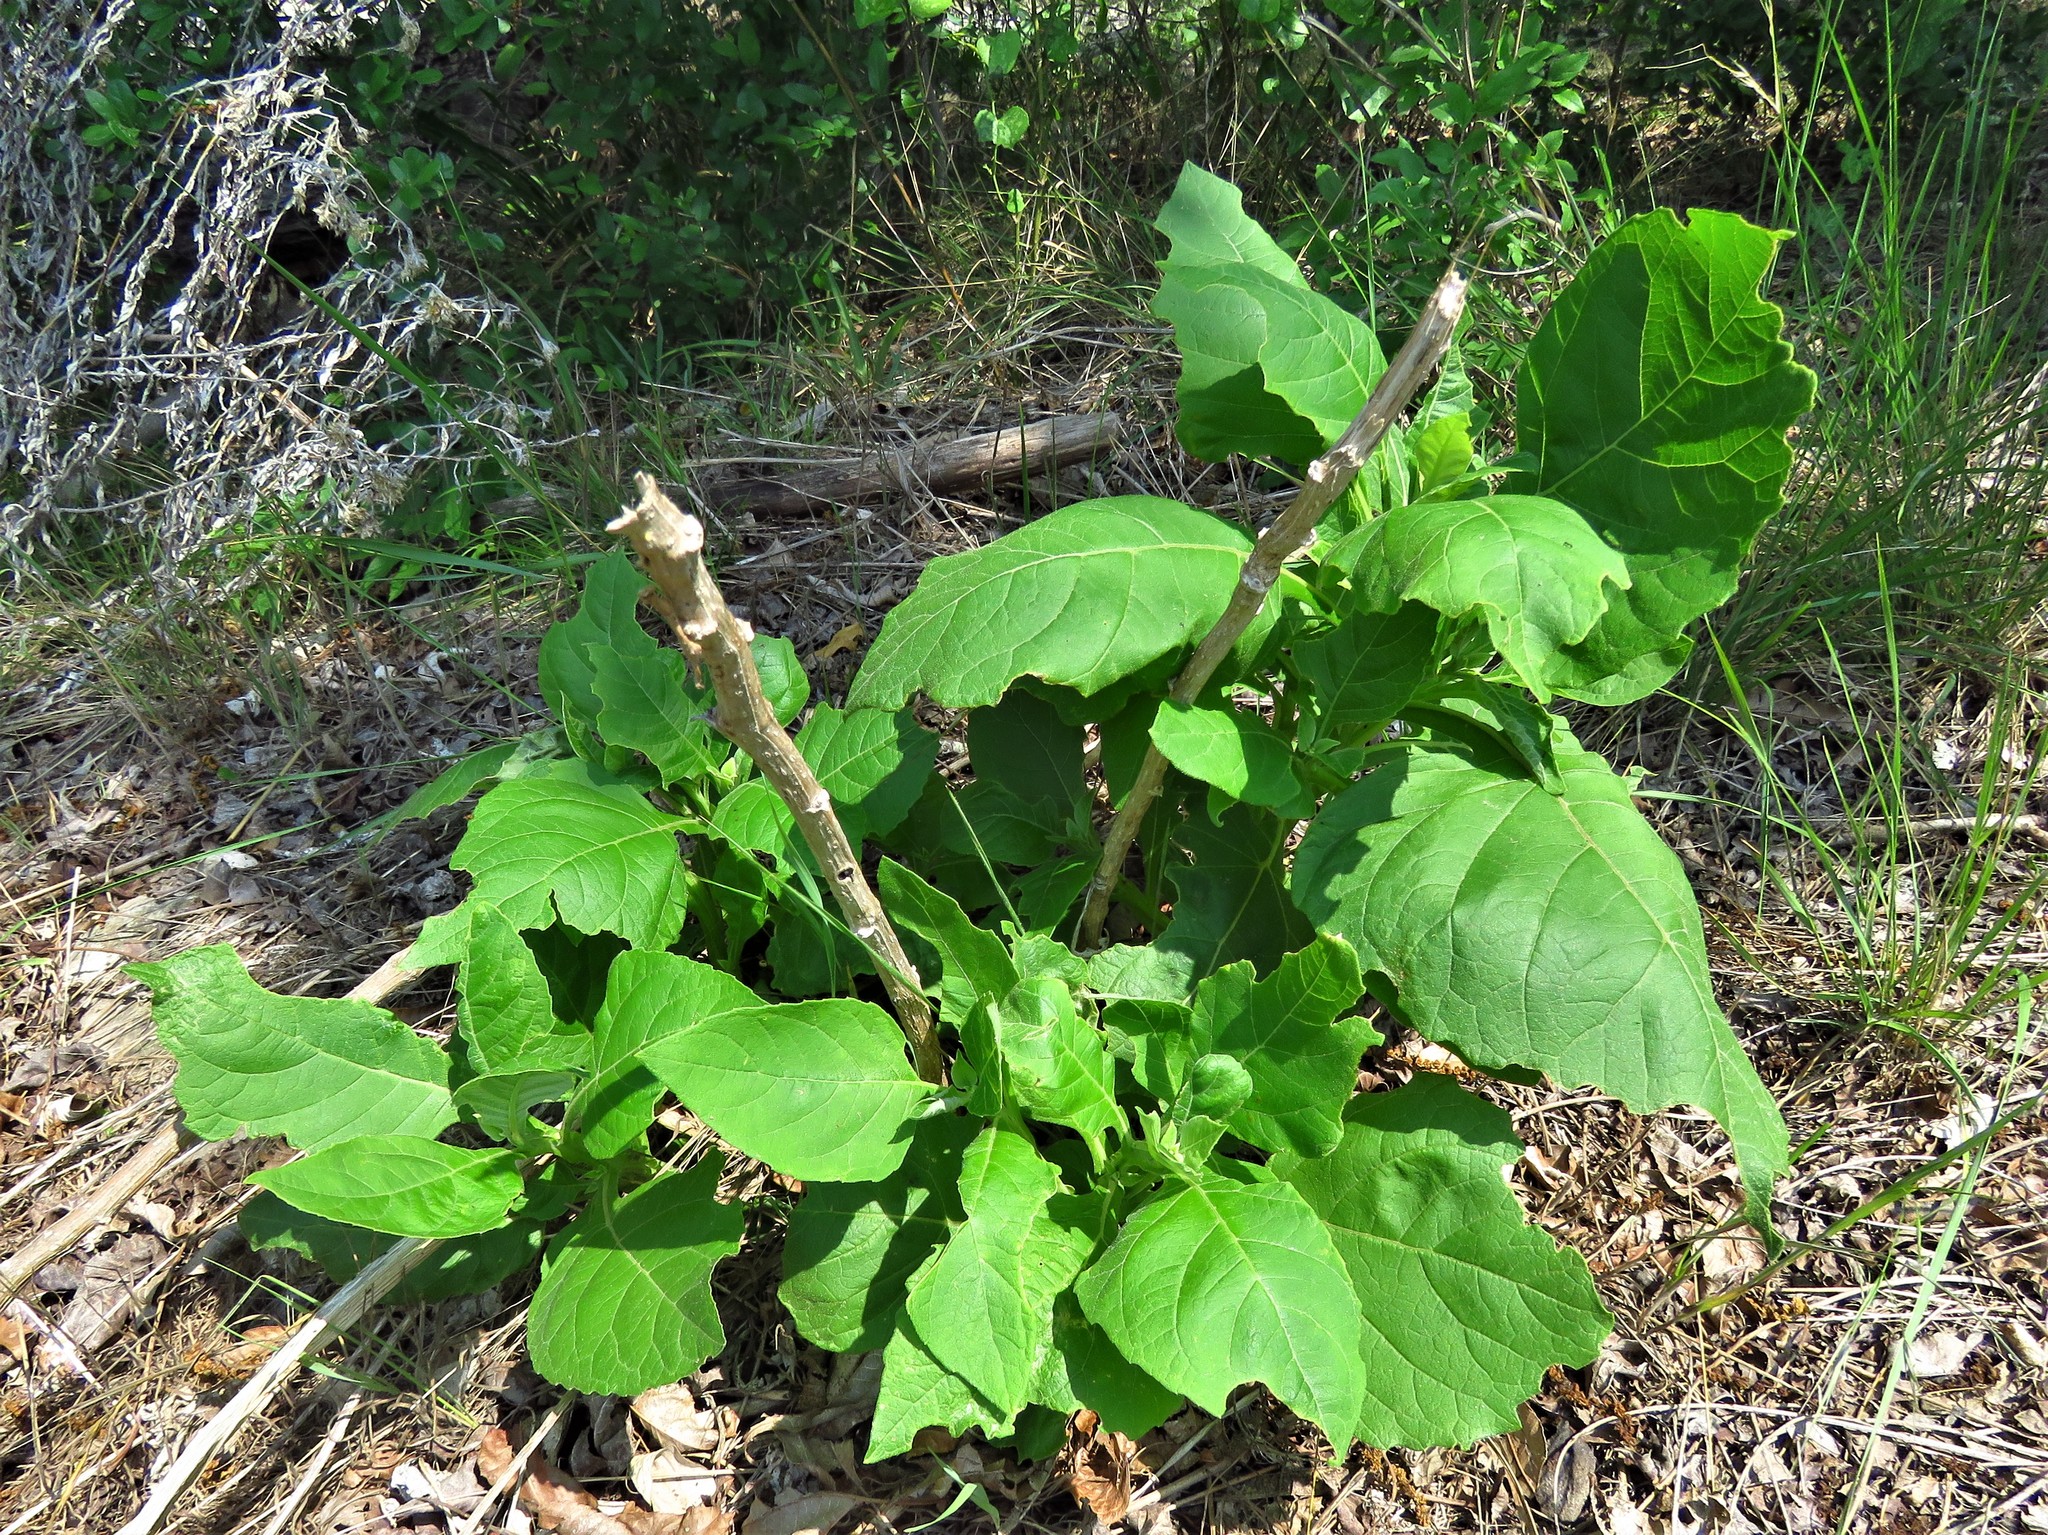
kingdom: Plantae
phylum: Tracheophyta
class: Magnoliopsida
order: Asterales
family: Asteraceae
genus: Verbesina
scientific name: Verbesina virginica
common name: Frostweed
